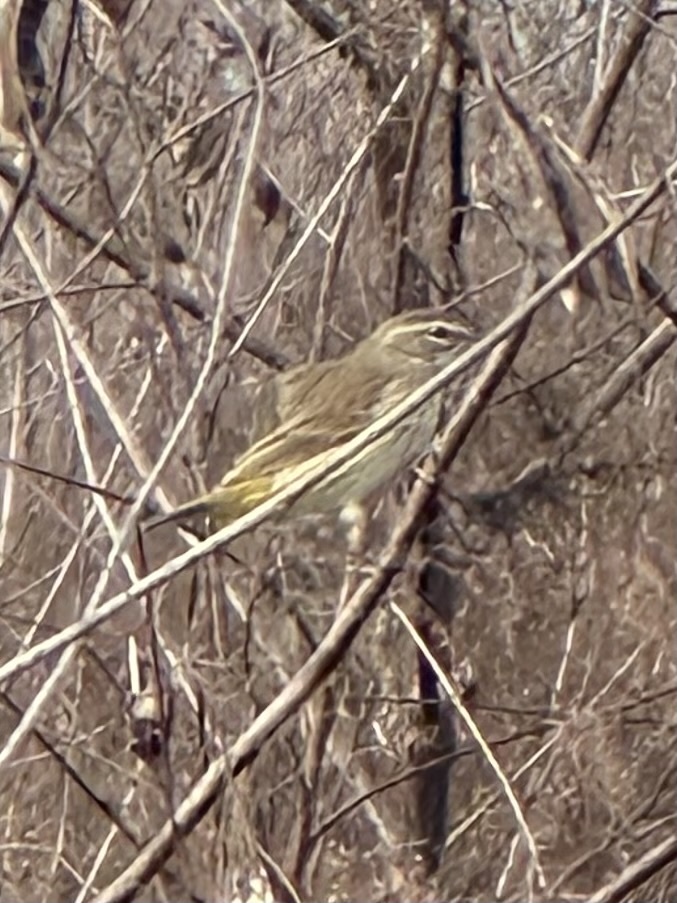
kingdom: Animalia
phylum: Chordata
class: Aves
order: Passeriformes
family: Parulidae
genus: Setophaga
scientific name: Setophaga palmarum
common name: Palm warbler
